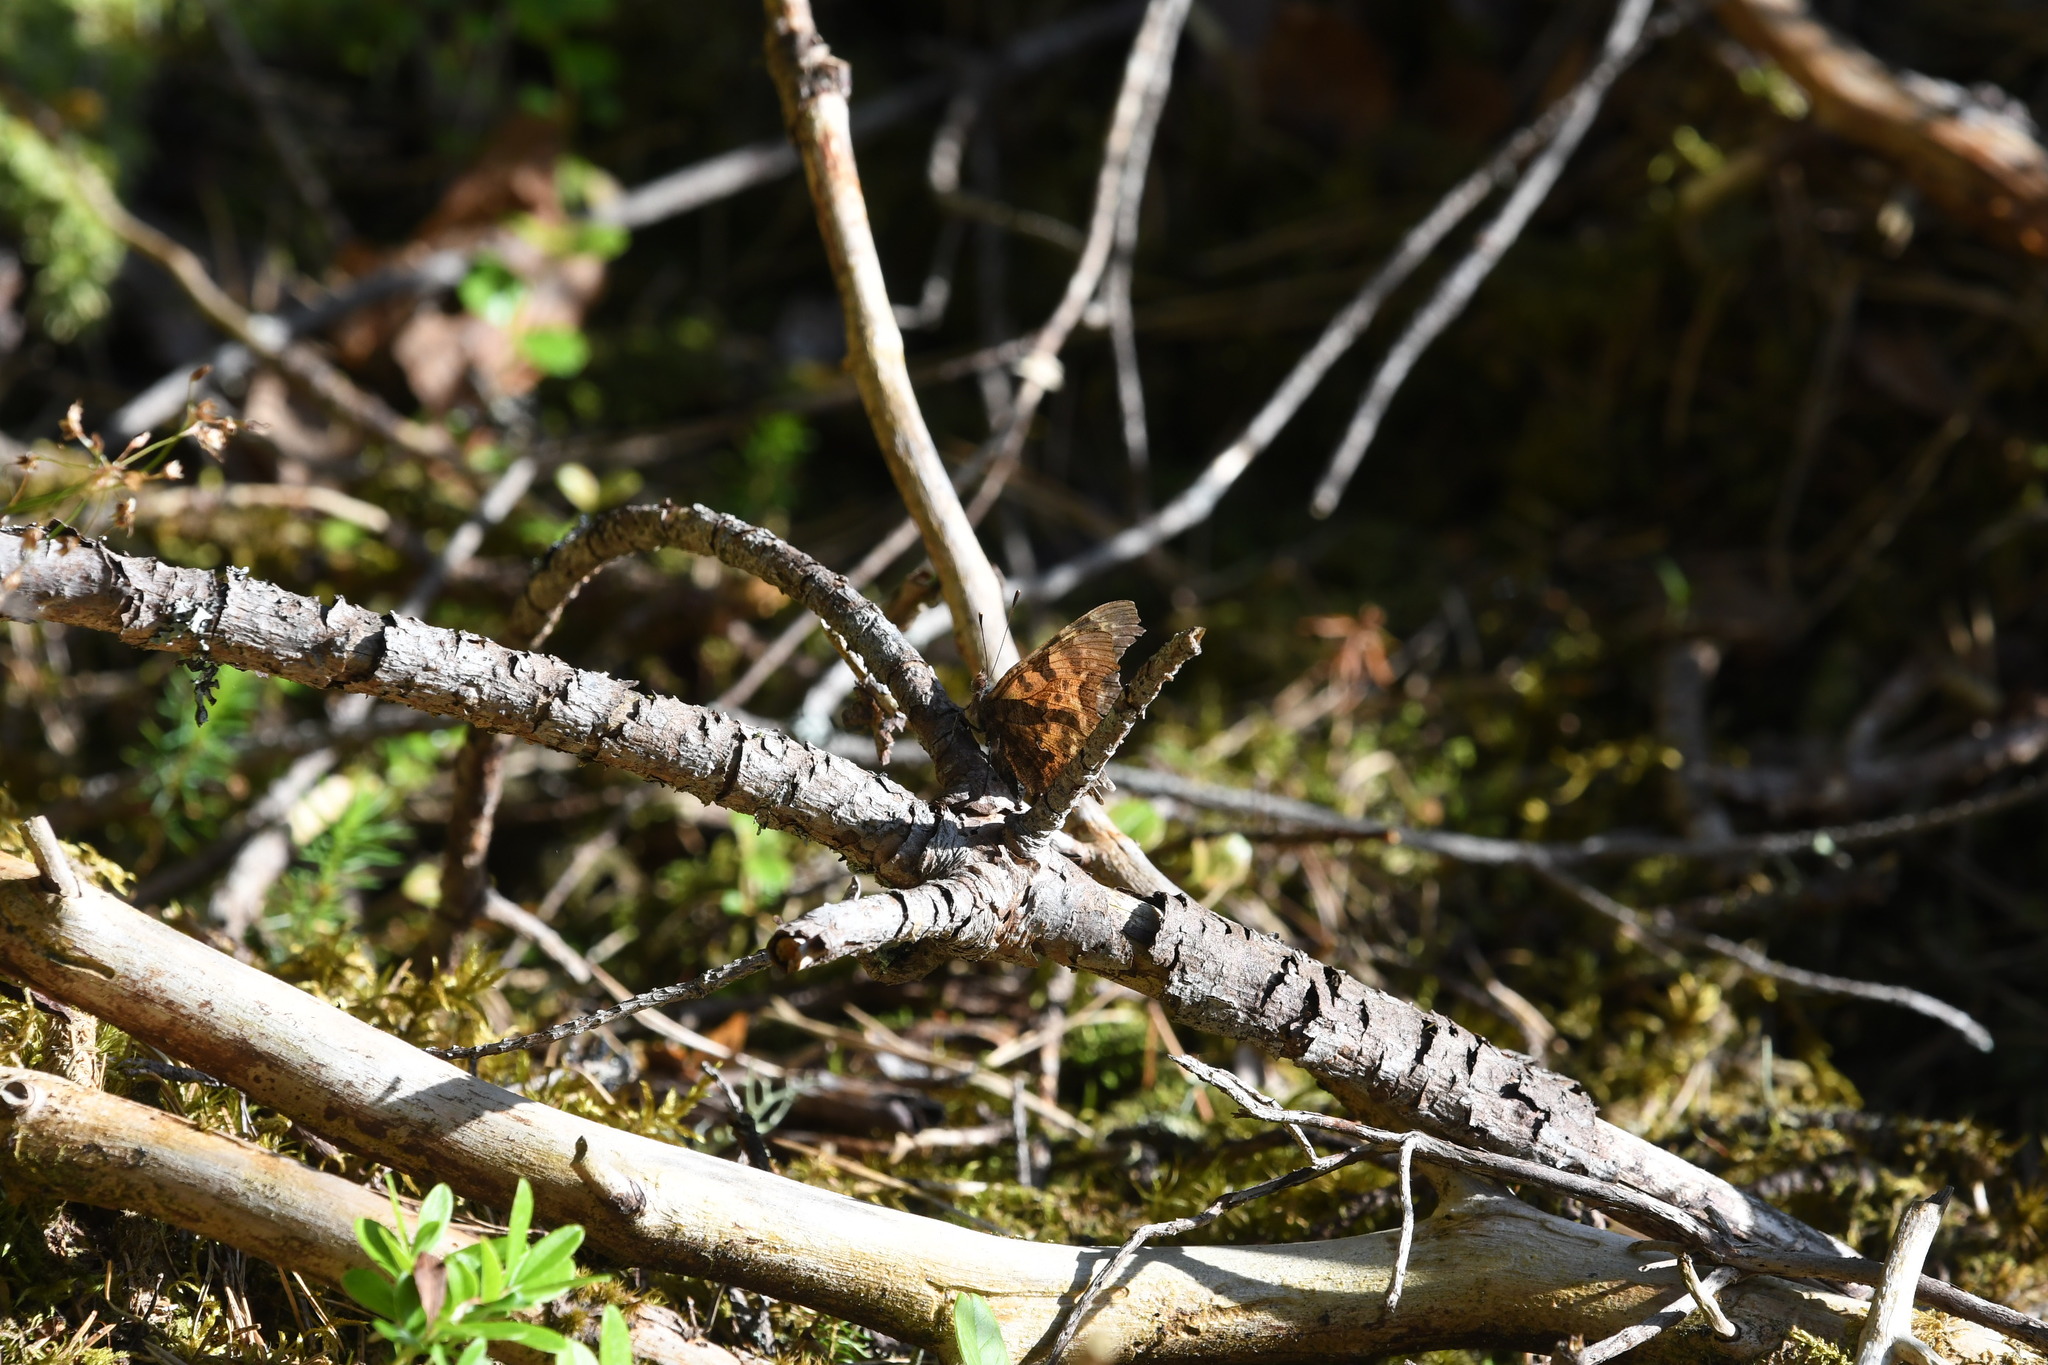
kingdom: Animalia
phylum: Arthropoda
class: Insecta
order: Lepidoptera
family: Nymphalidae
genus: Polygonia
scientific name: Polygonia c-album
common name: Comma
